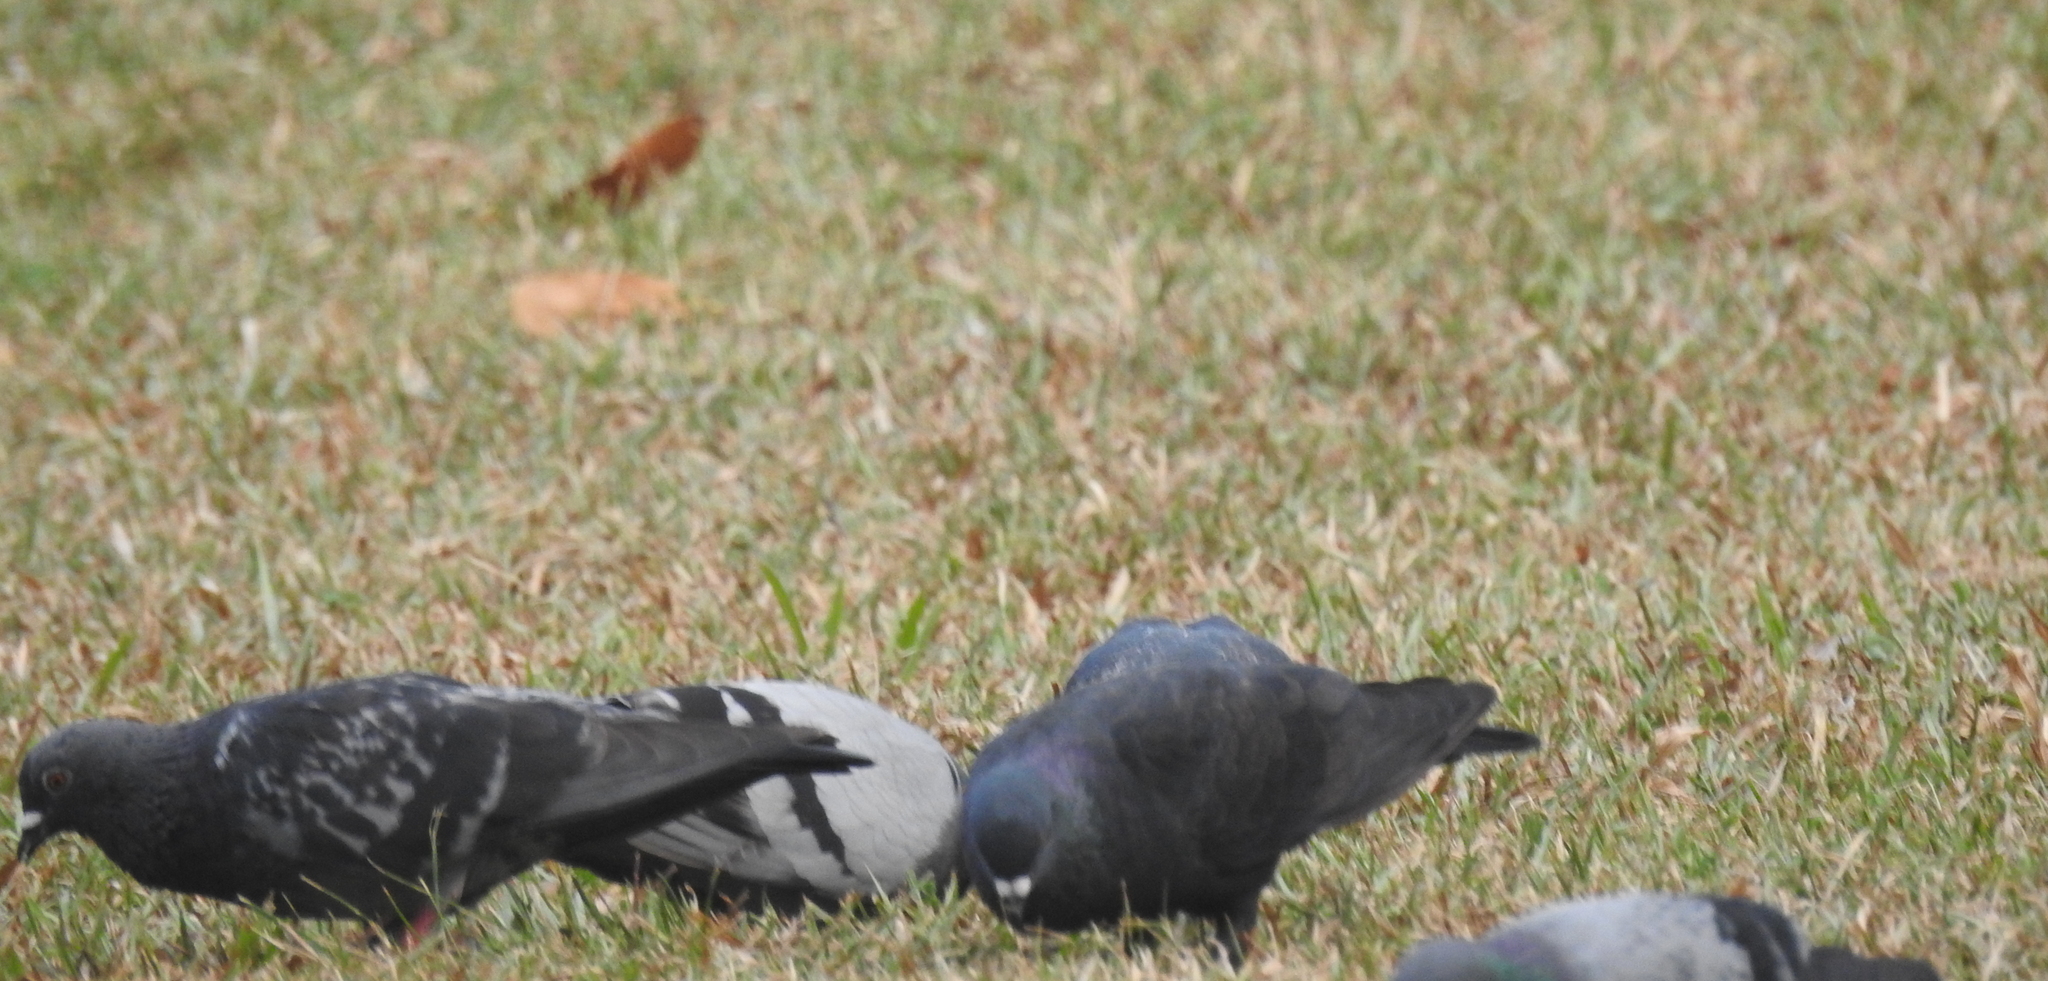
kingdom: Animalia
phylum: Chordata
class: Aves
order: Columbiformes
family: Columbidae
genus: Columba
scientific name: Columba livia
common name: Rock pigeon
